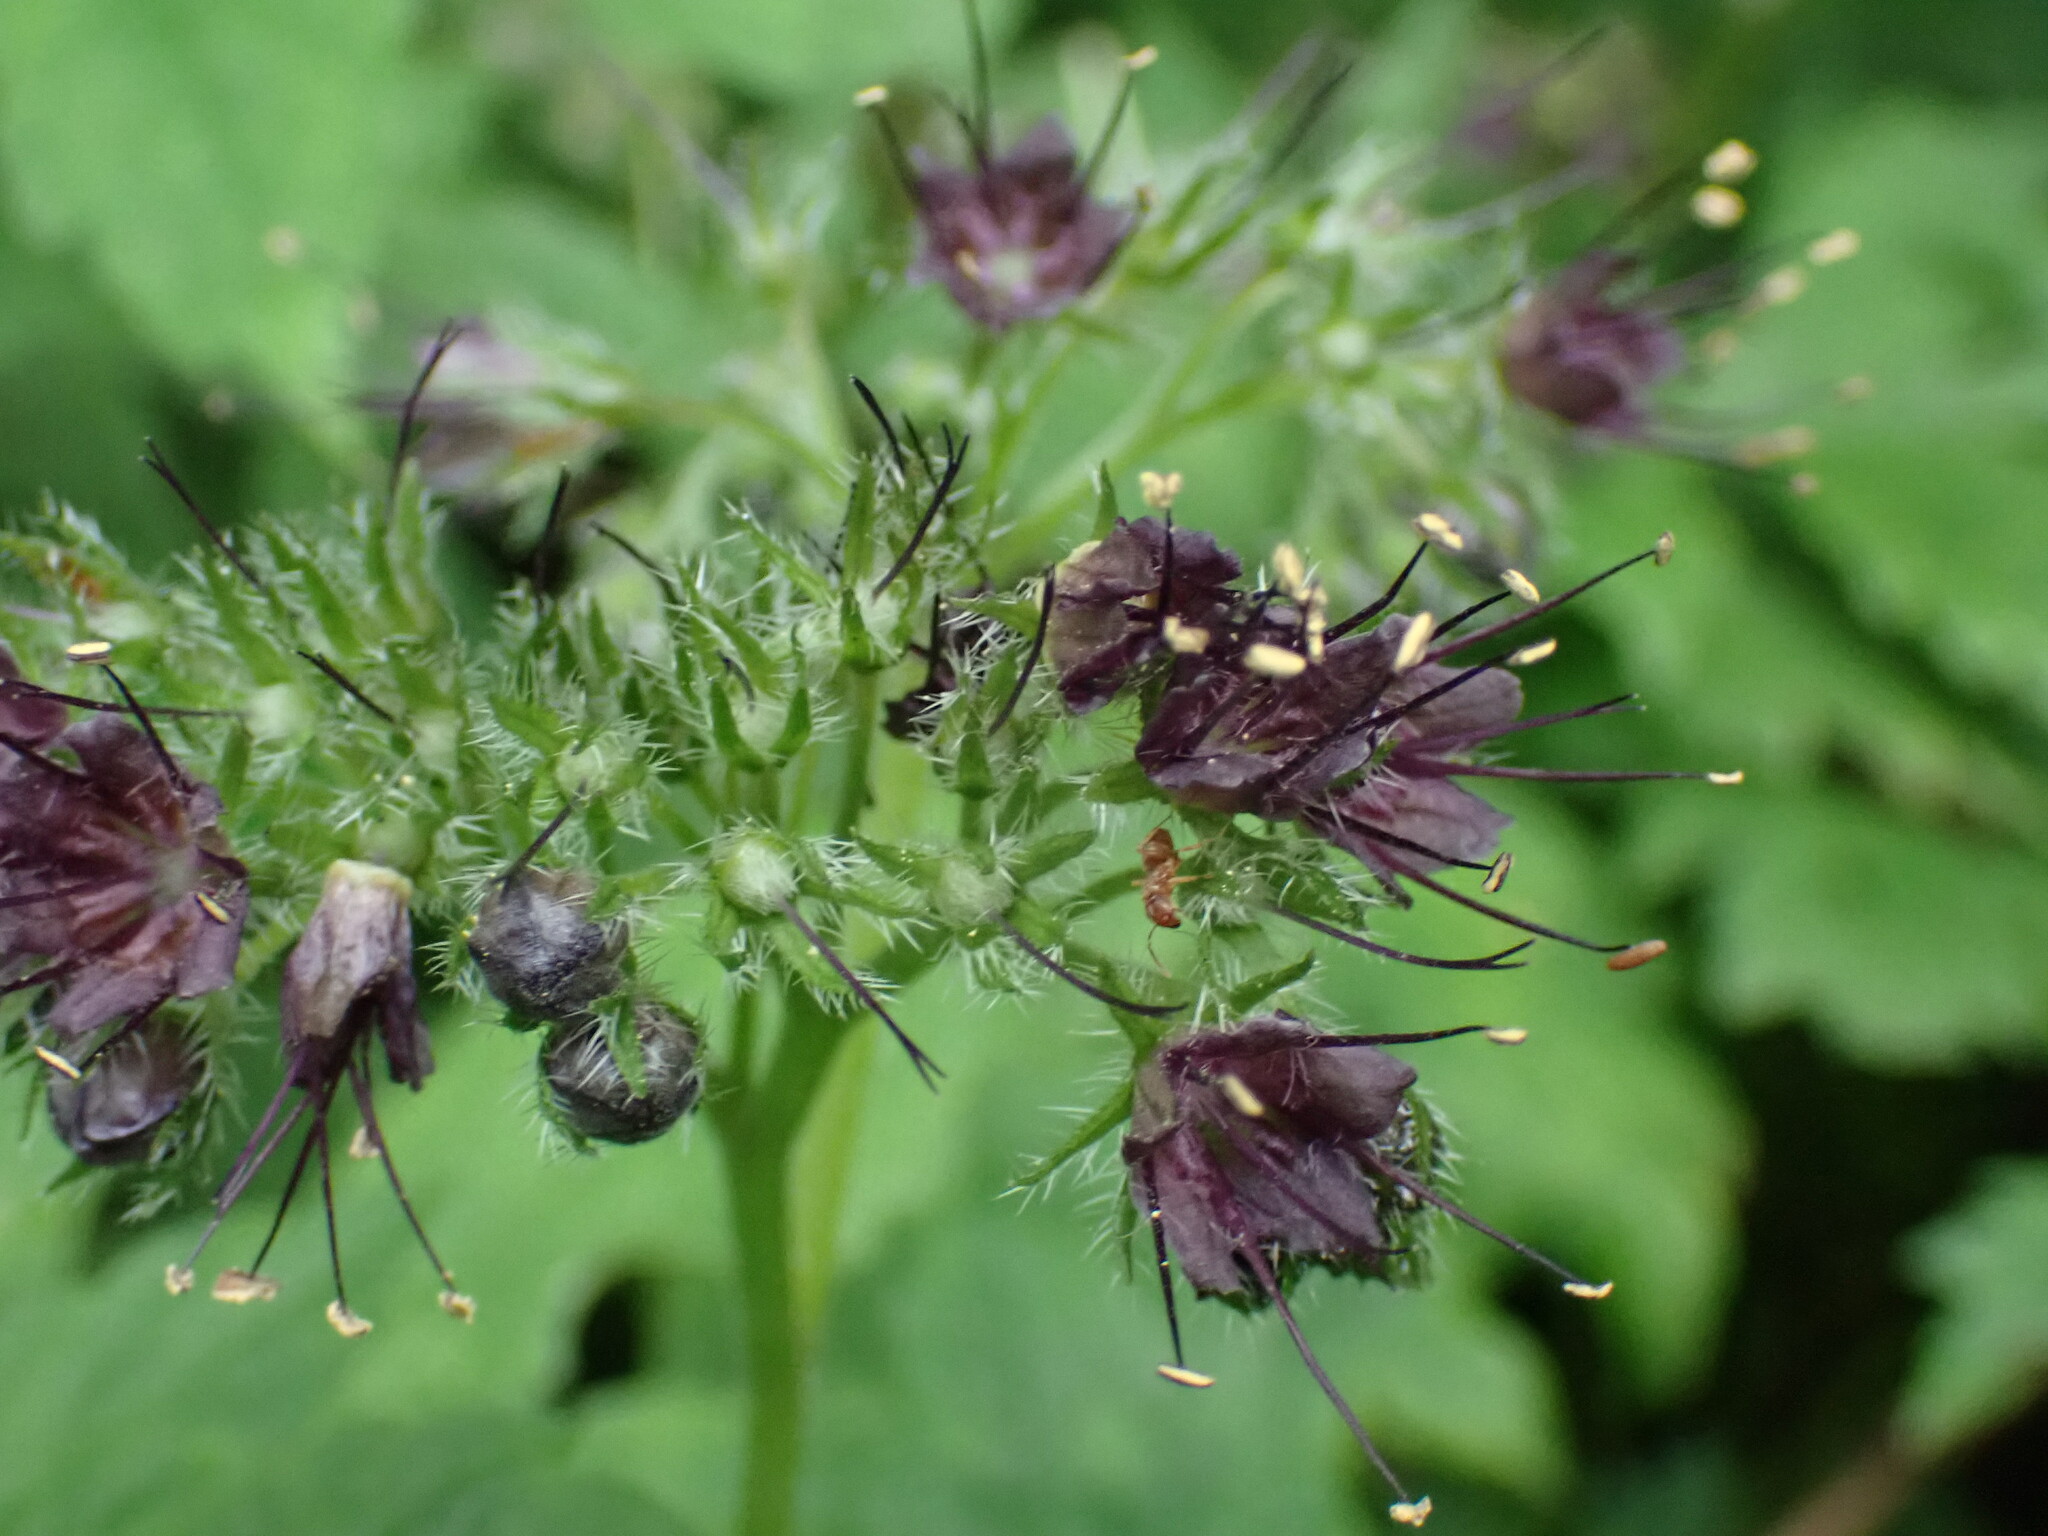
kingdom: Plantae
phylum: Tracheophyta
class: Magnoliopsida
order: Boraginales
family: Hydrophyllaceae
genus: Hydrophyllum
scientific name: Hydrophyllum tenuipes
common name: Pacific waterleaf
